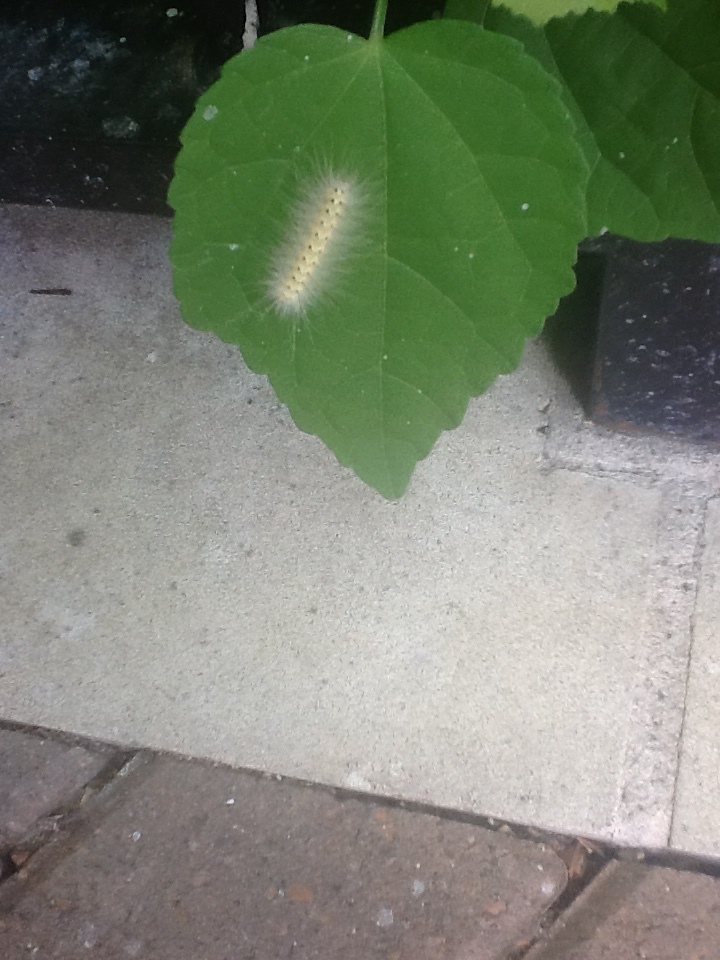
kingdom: Animalia
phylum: Arthropoda
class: Insecta
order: Lepidoptera
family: Erebidae
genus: Hyphantria
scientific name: Hyphantria cunea
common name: American white moth
